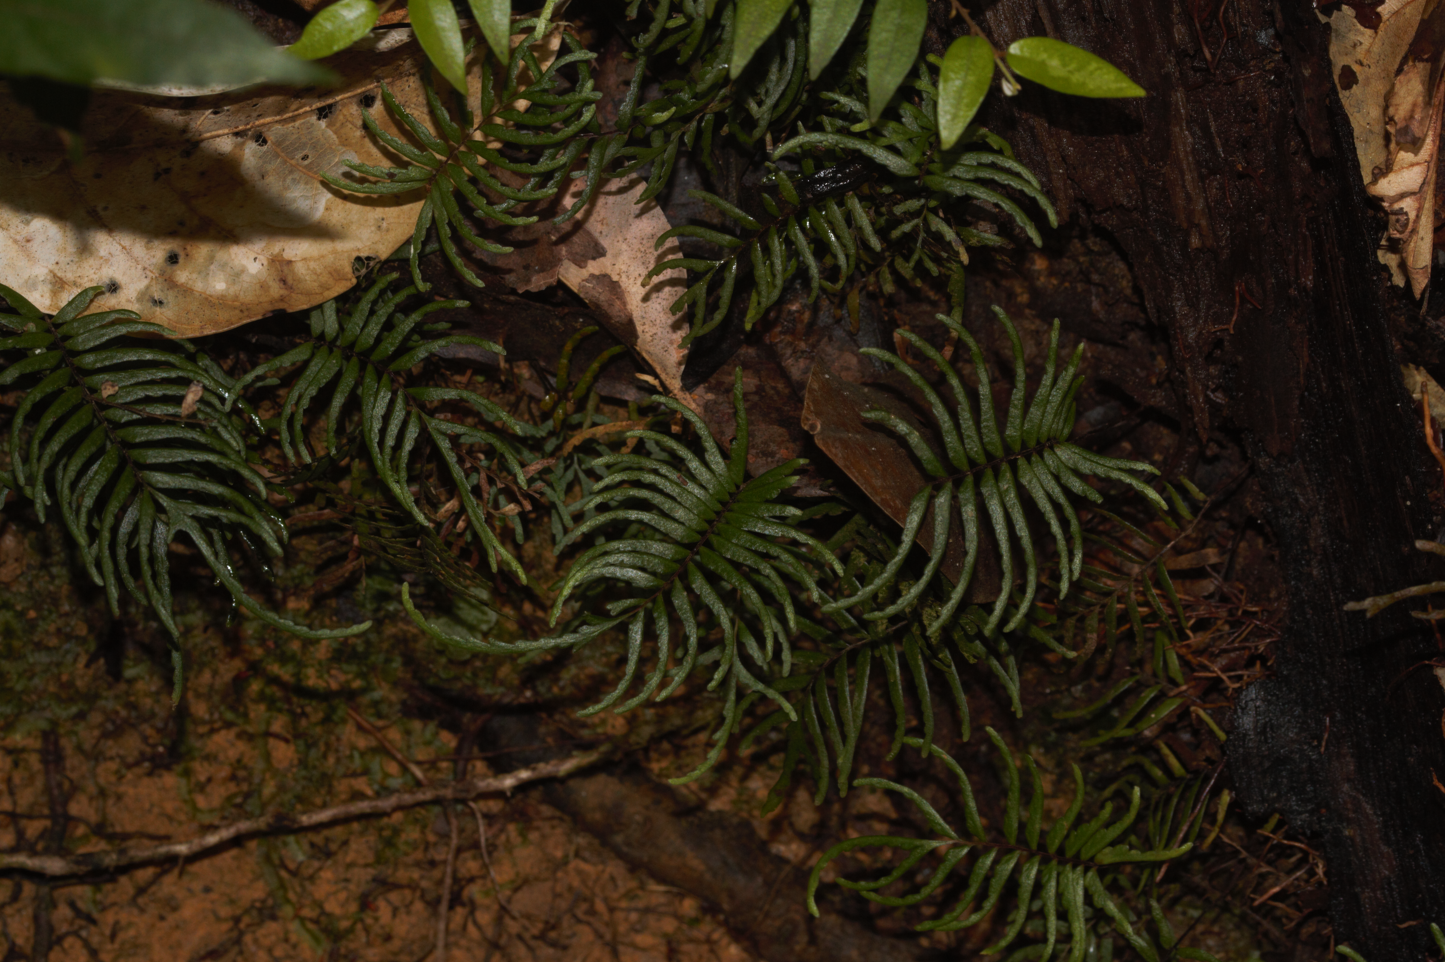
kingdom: Plantae
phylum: Tracheophyta
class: Polypodiopsida
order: Polypodiales
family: Lindsaeaceae
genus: Lindsaea
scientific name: Lindsaea dubia
